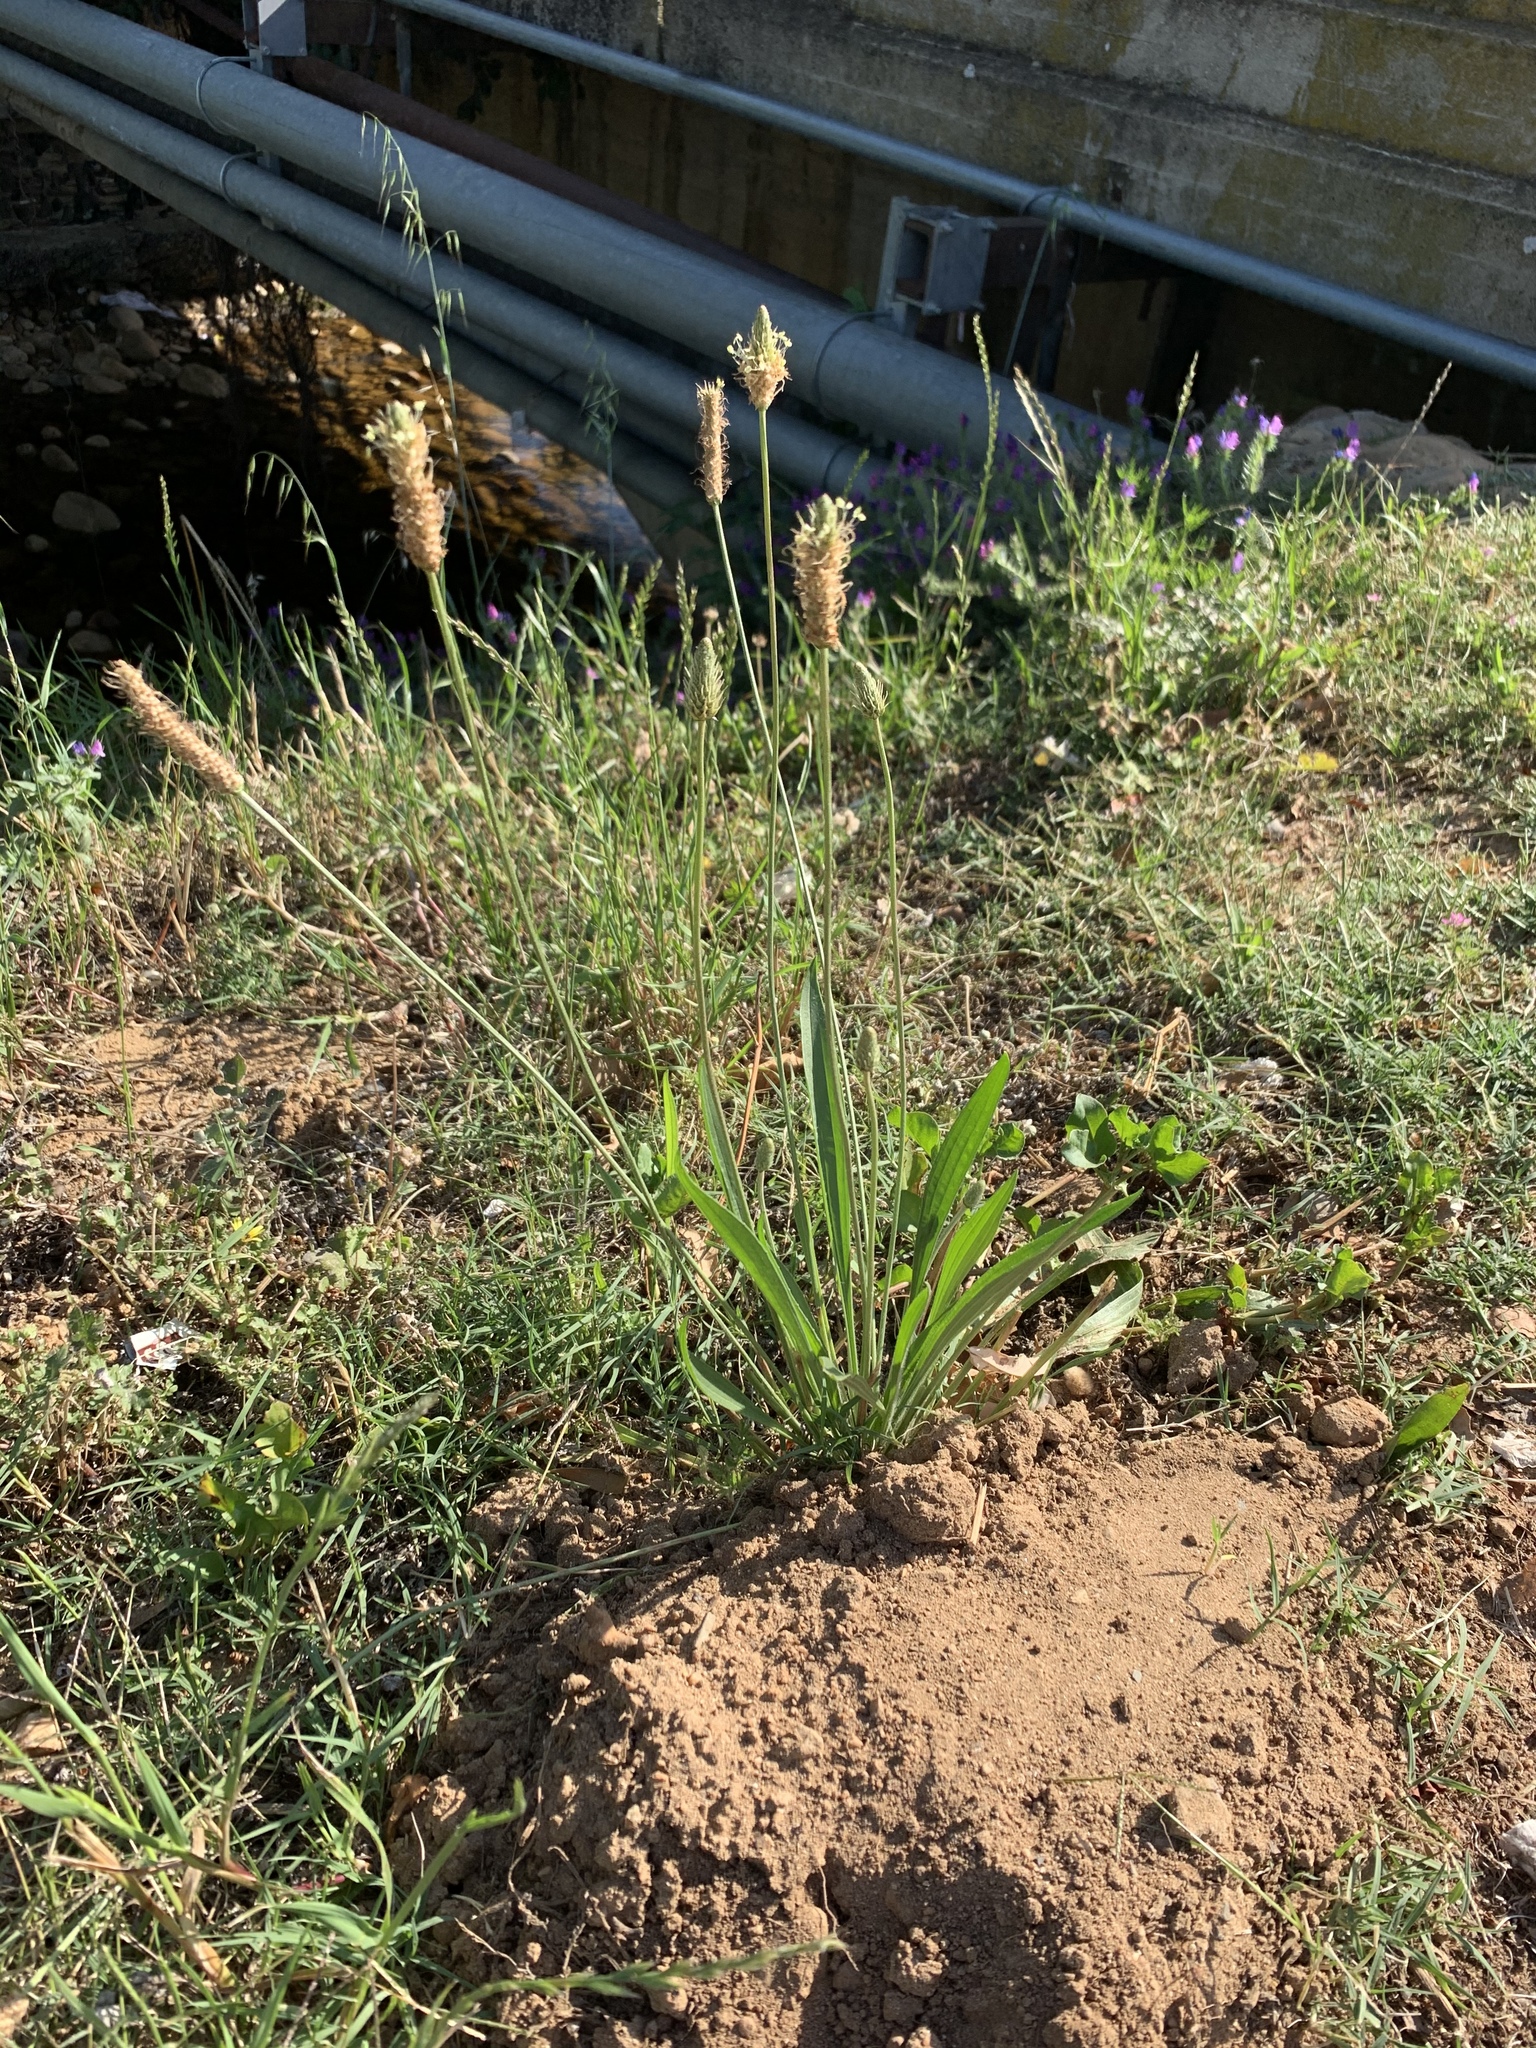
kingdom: Plantae
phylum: Tracheophyta
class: Magnoliopsida
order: Lamiales
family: Plantaginaceae
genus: Plantago
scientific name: Plantago lanceolata
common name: Ribwort plantain
